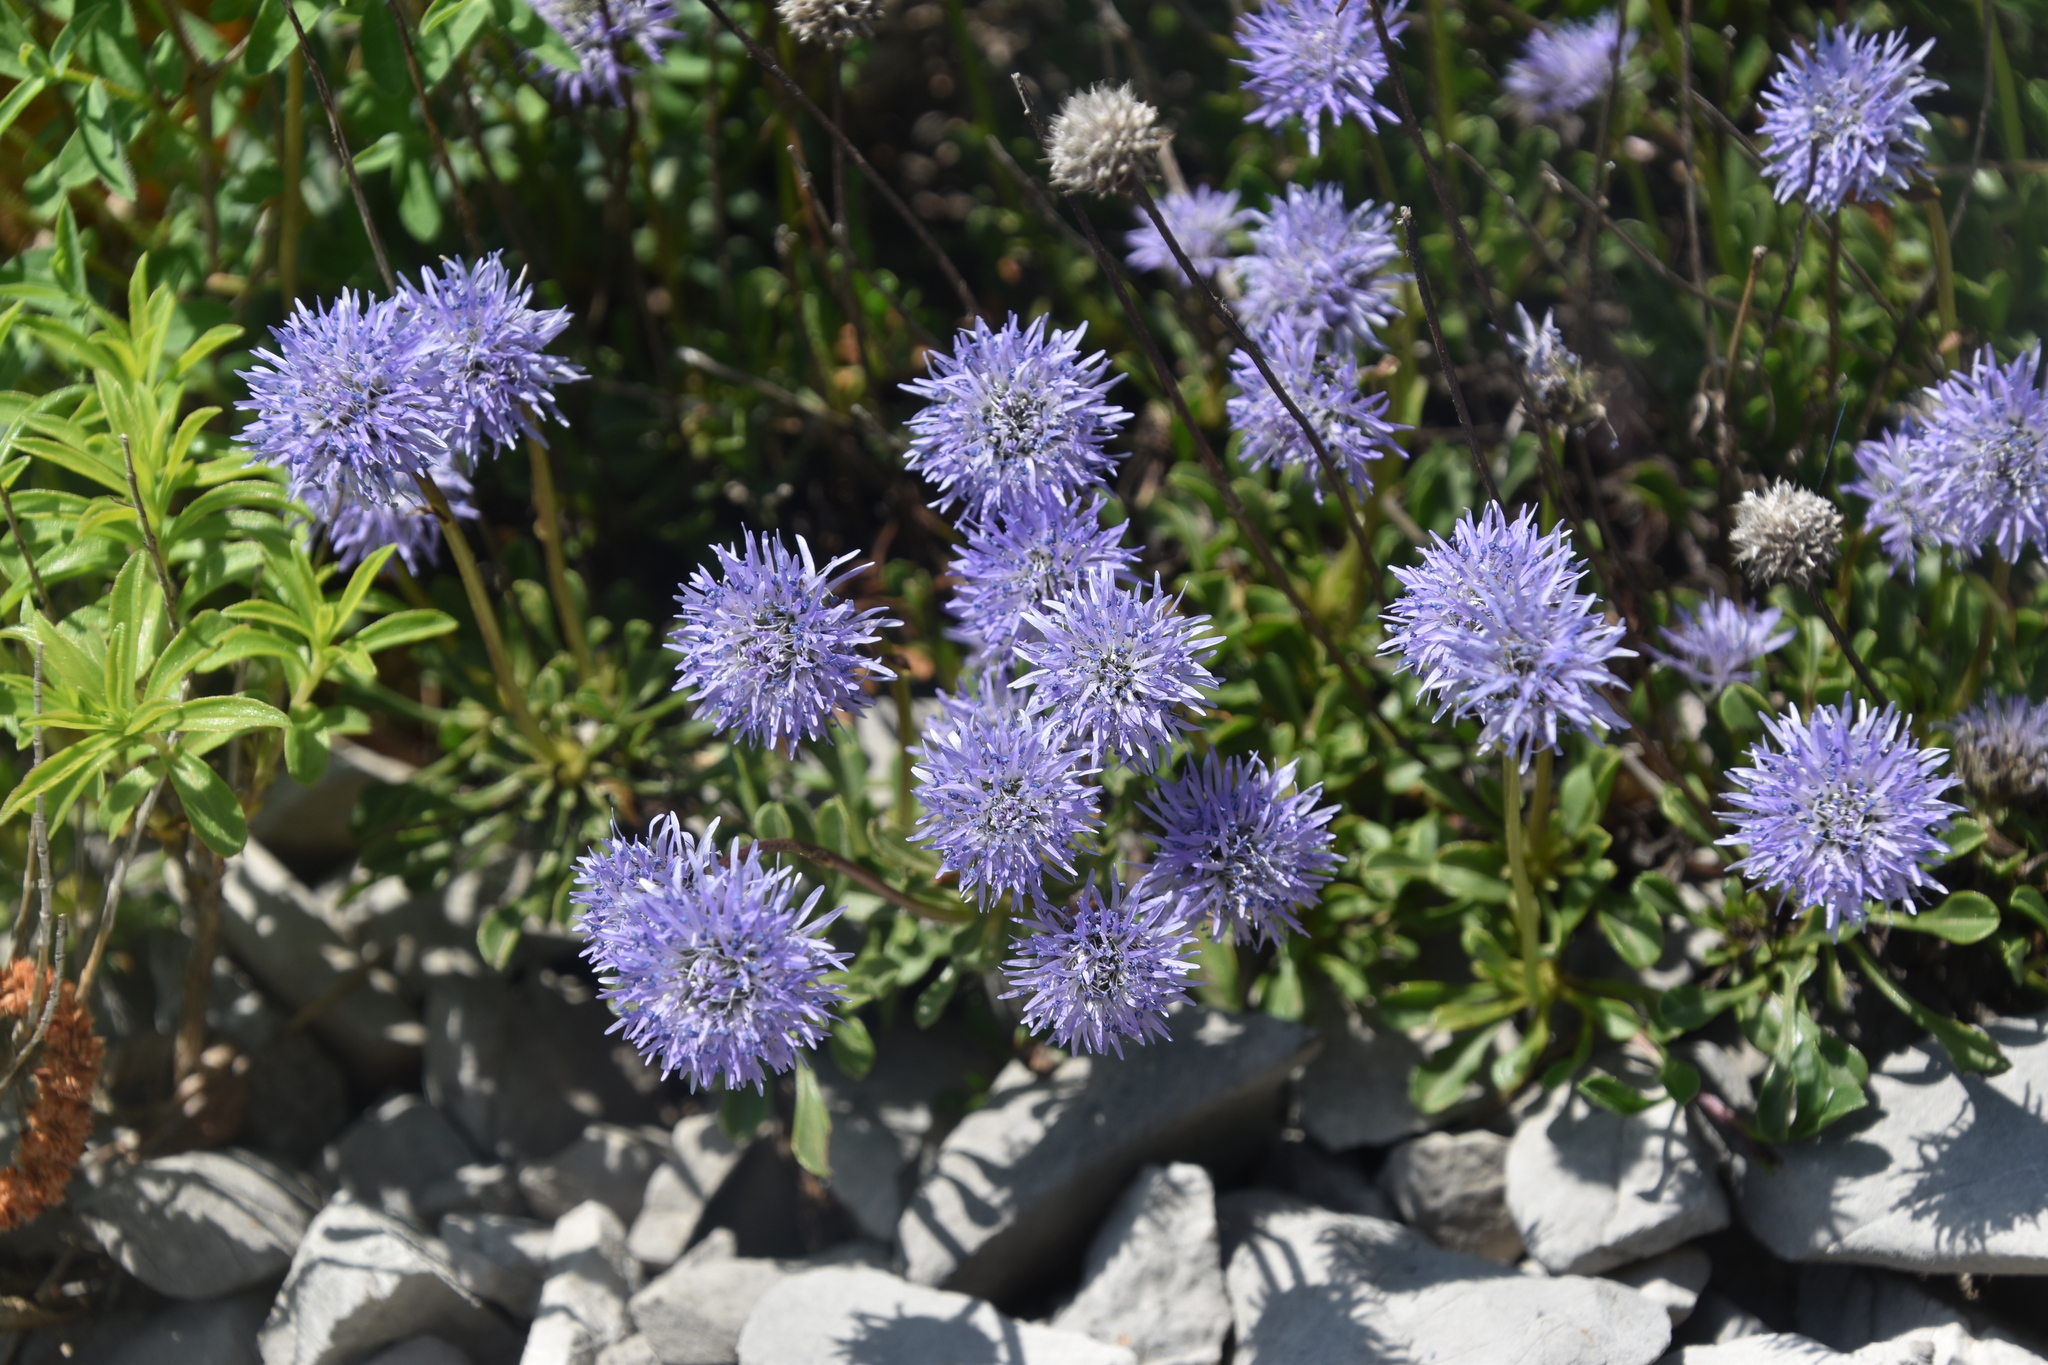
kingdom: Plantae
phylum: Tracheophyta
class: Magnoliopsida
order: Lamiales
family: Plantaginaceae
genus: Globularia
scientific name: Globularia cordifolia
